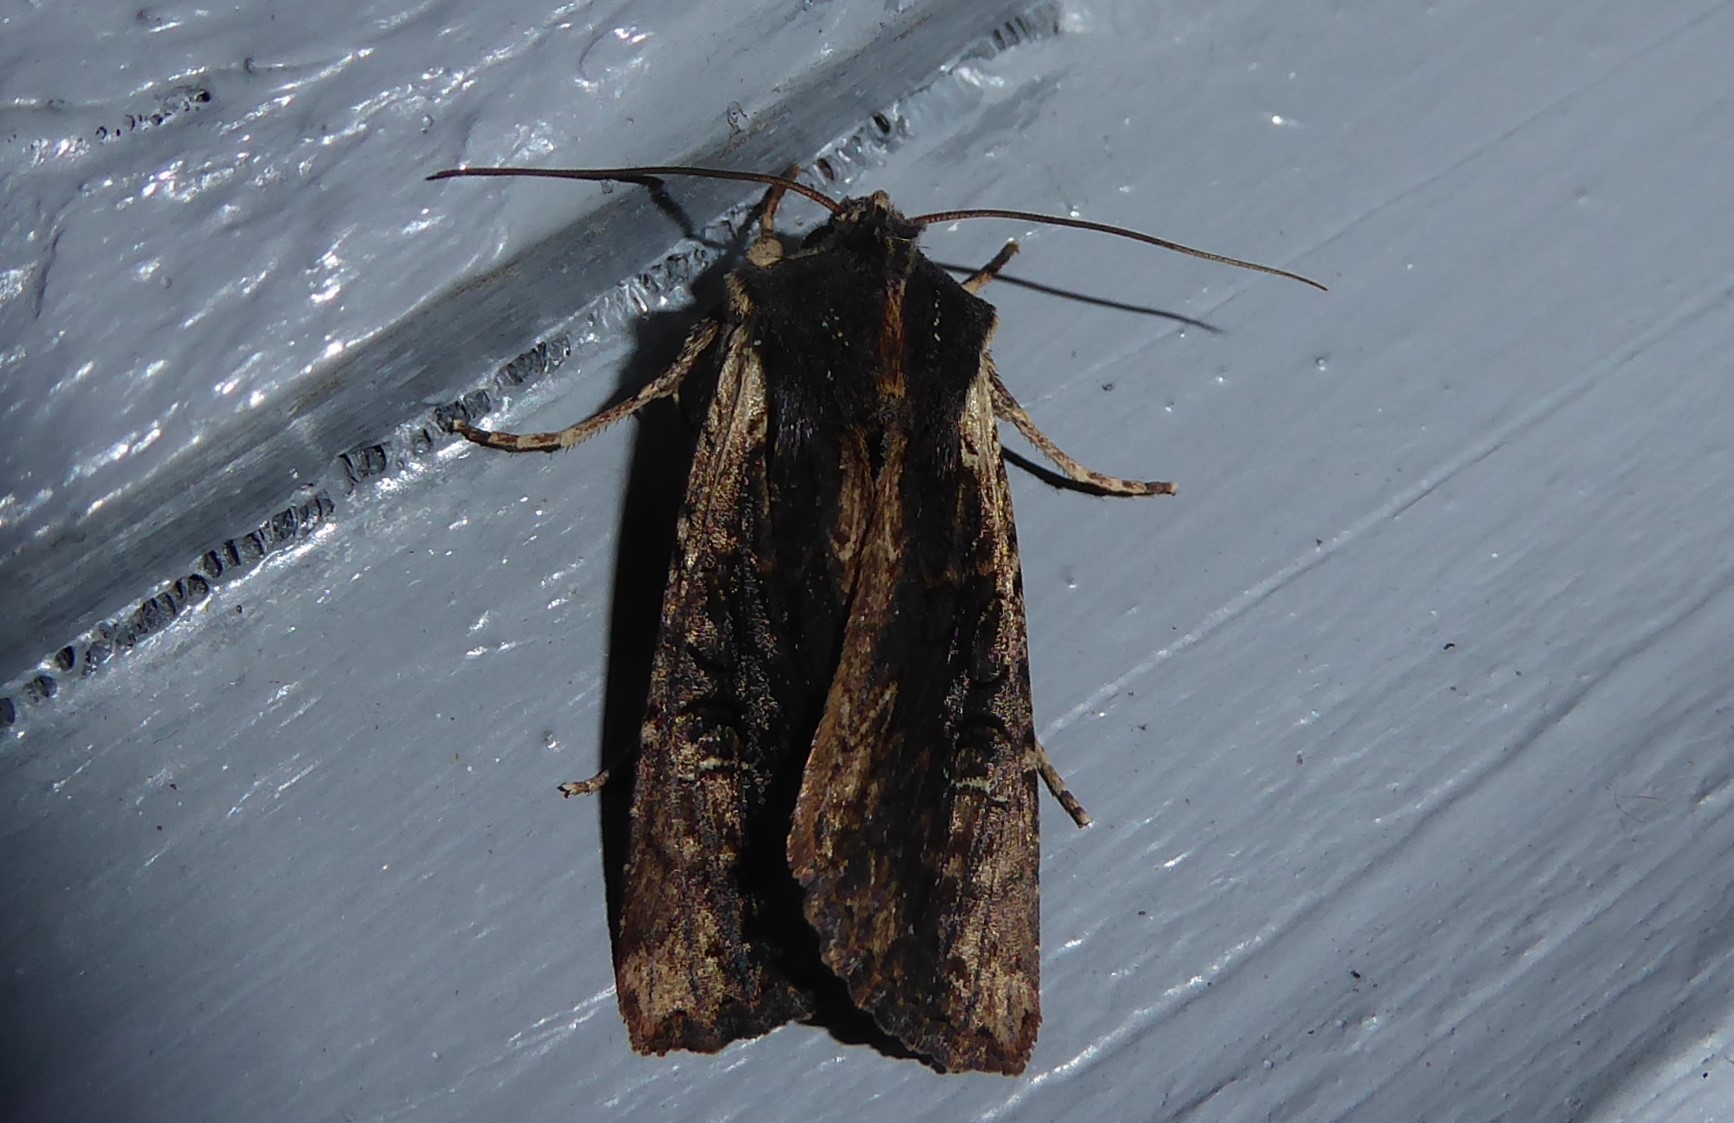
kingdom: Animalia
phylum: Arthropoda
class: Insecta
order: Lepidoptera
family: Noctuidae
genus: Ichneutica
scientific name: Ichneutica omoplaca
